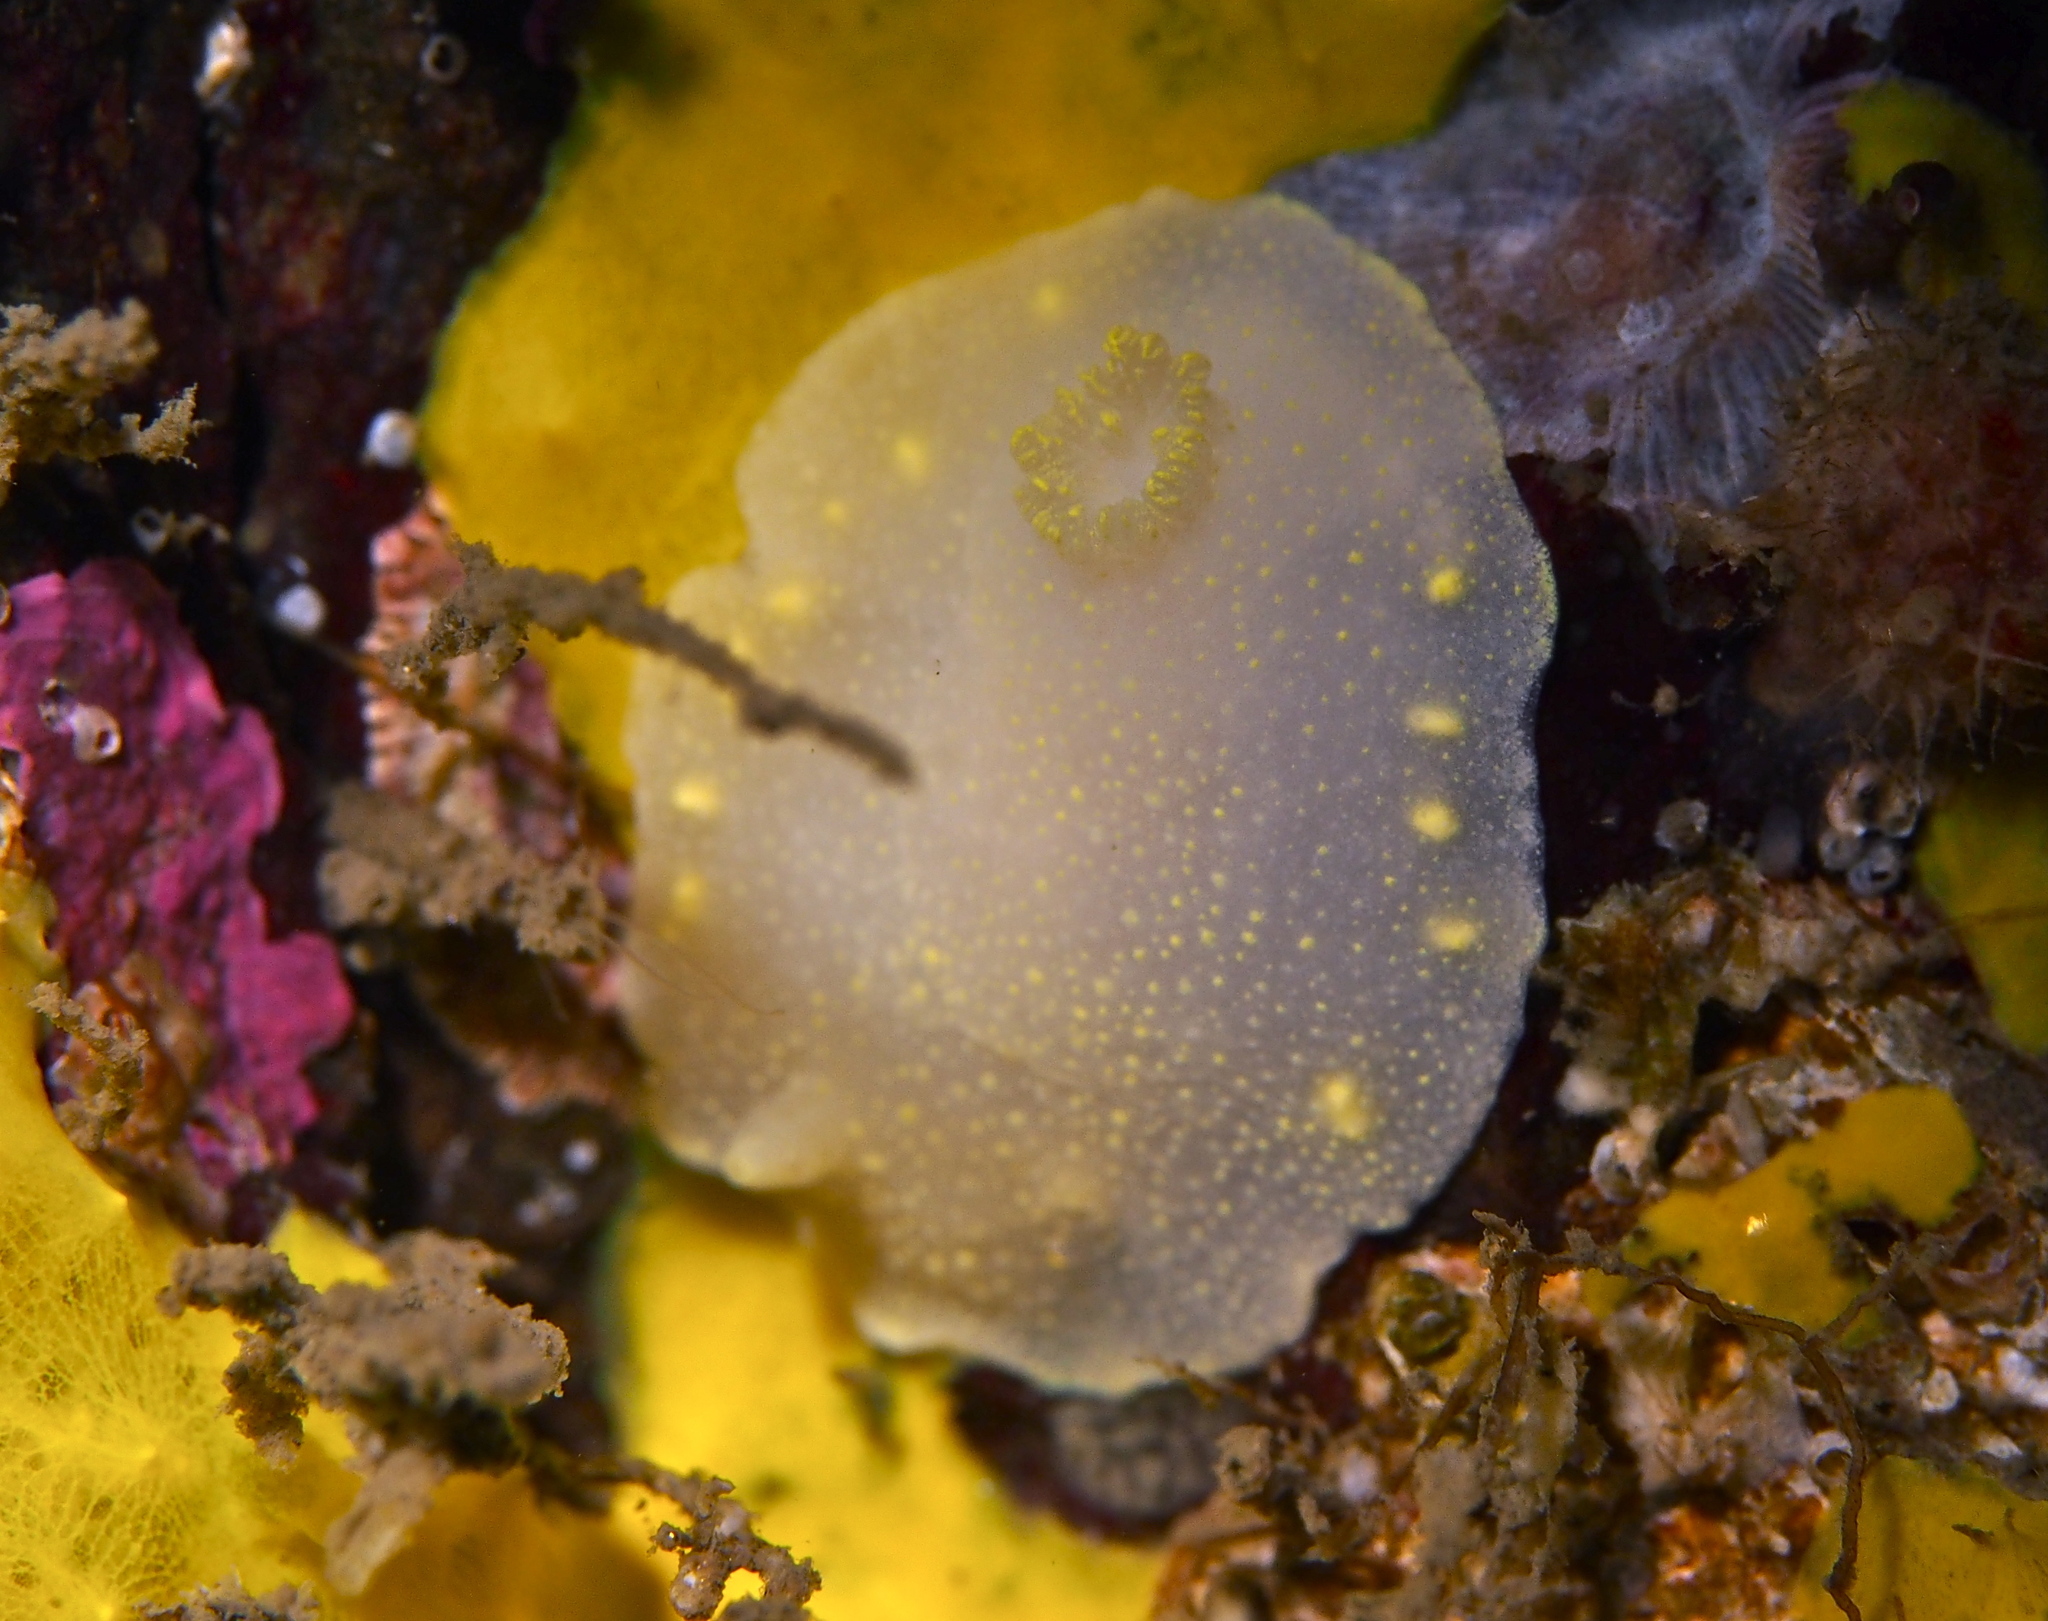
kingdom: Animalia
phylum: Mollusca
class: Gastropoda
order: Nudibranchia
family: Cadlinidae
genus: Cadlina
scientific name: Cadlina laevis
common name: White atlantic cadlina
